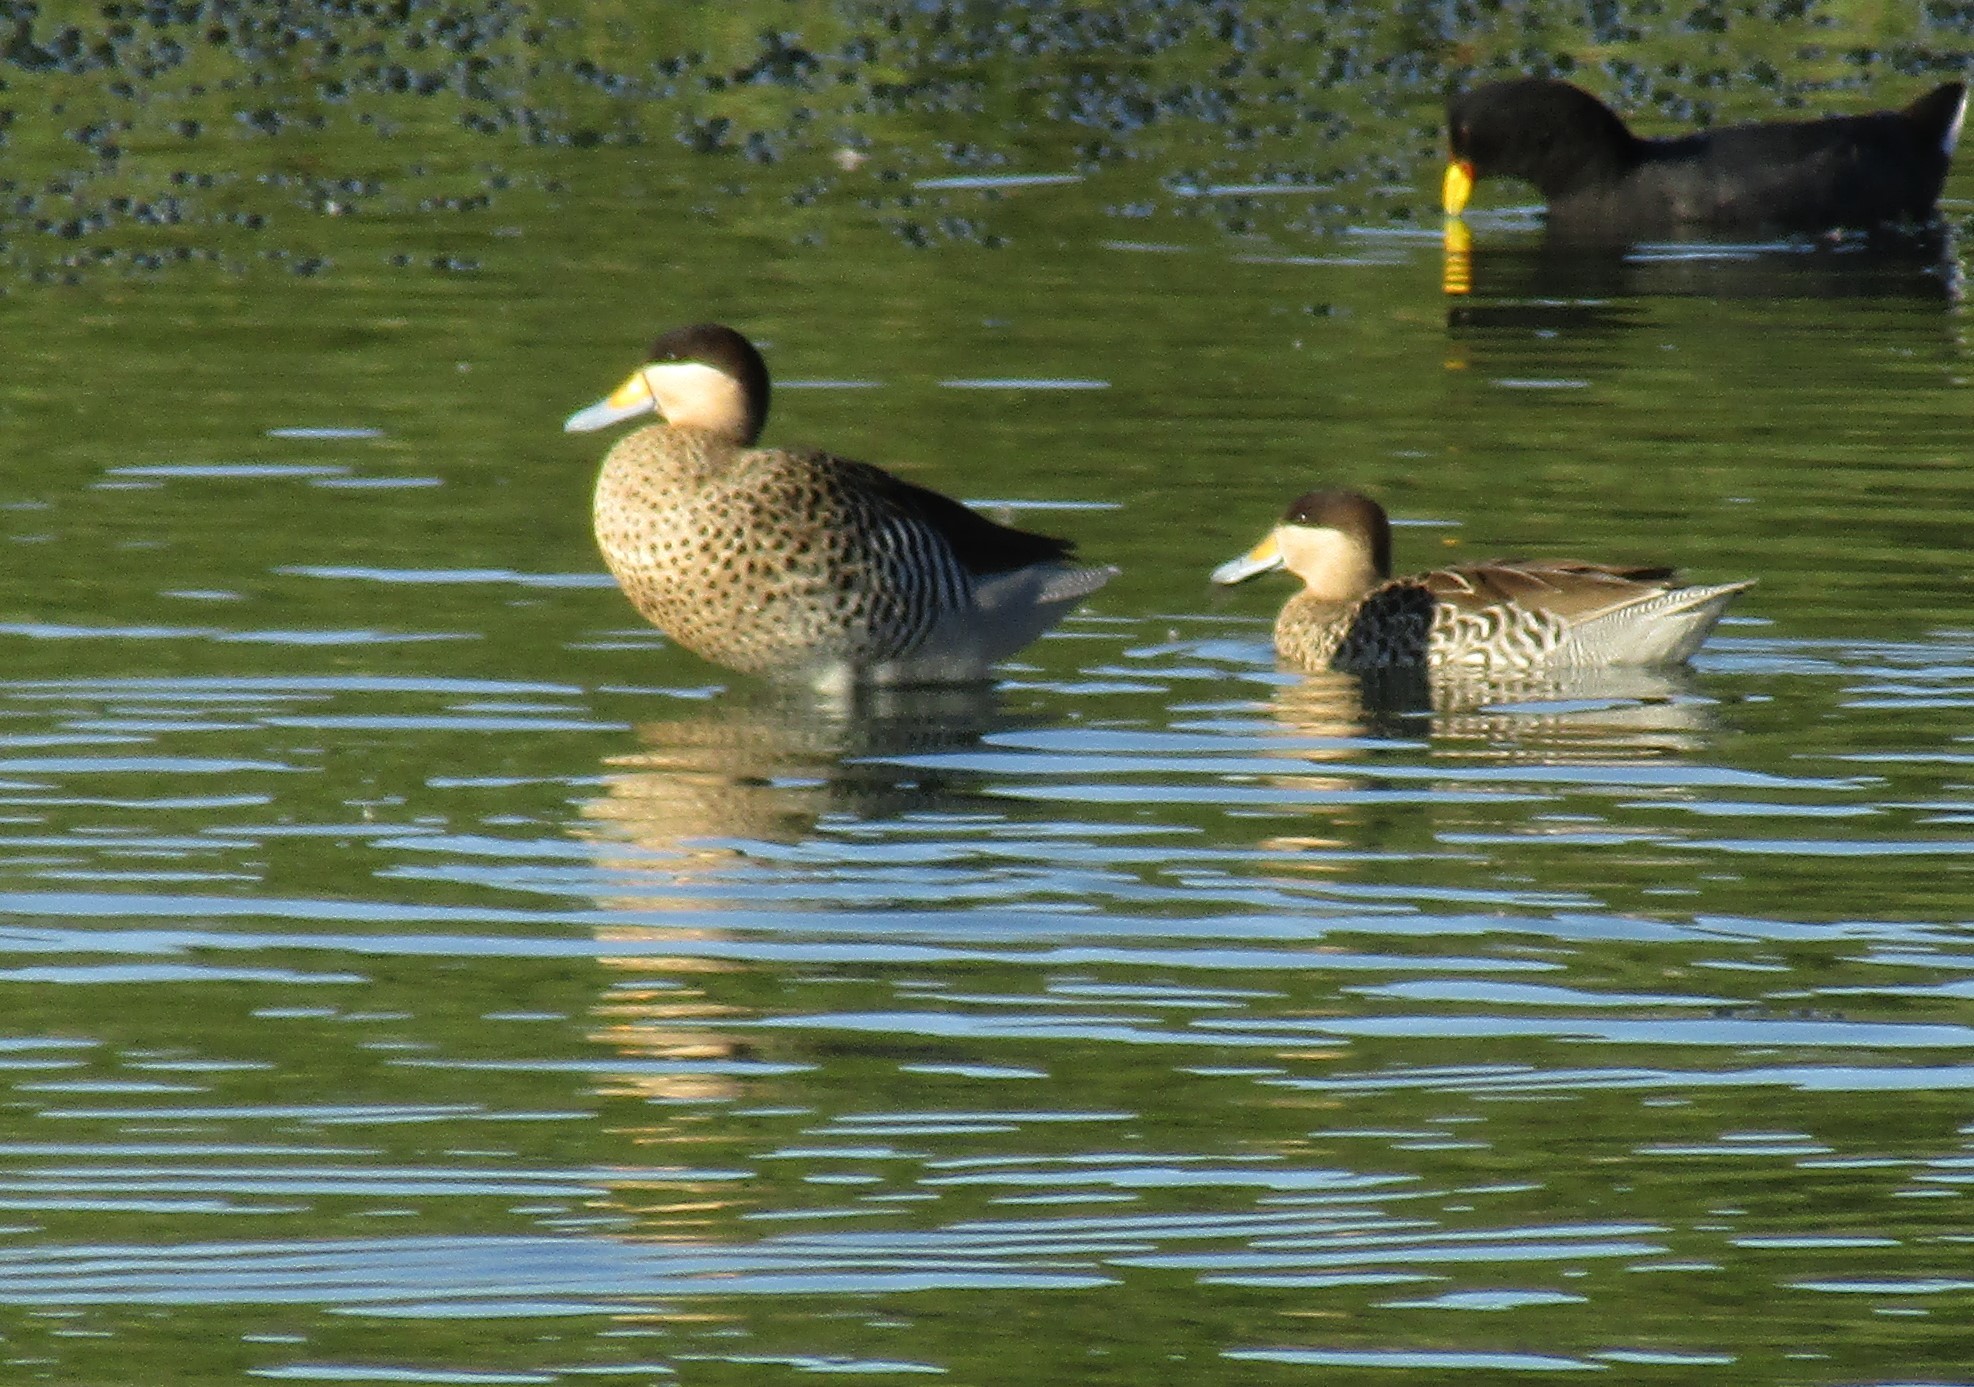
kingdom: Animalia
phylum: Chordata
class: Aves
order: Anseriformes
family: Anatidae
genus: Spatula
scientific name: Spatula versicolor
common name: Silver teal
